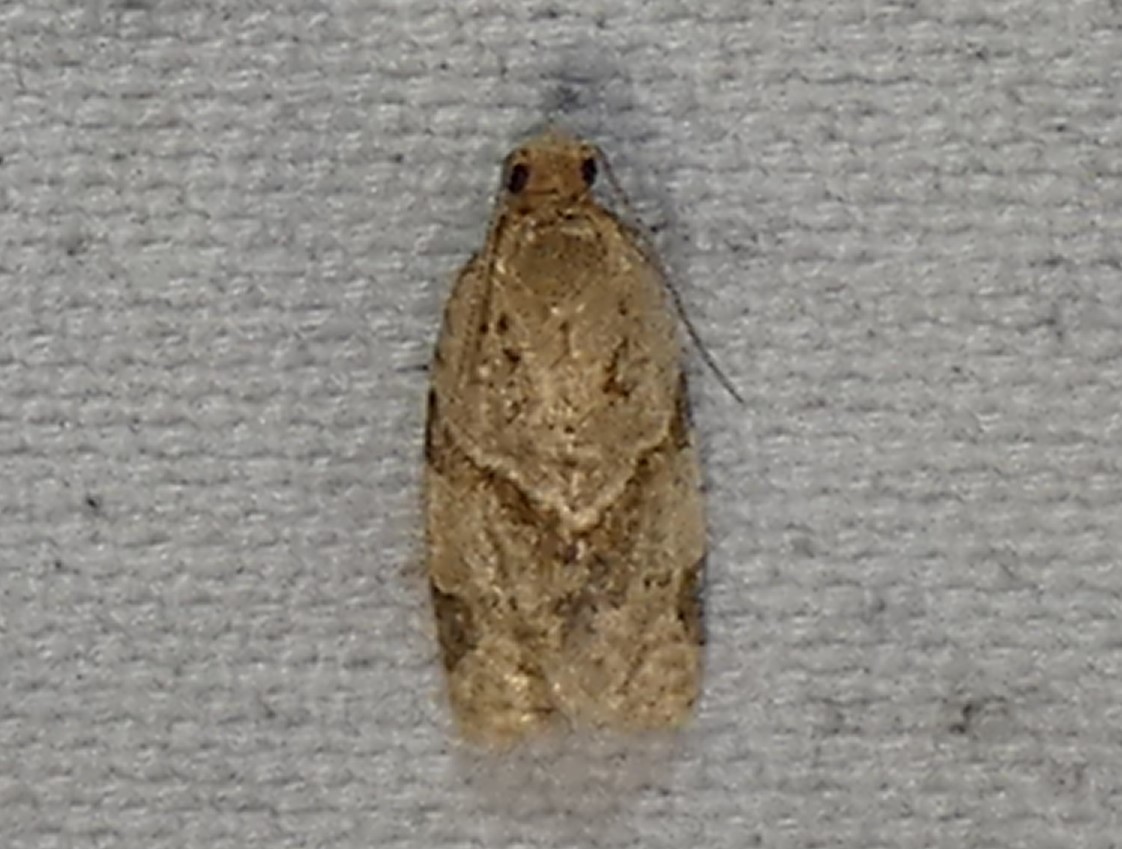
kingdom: Animalia
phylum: Arthropoda
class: Insecta
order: Lepidoptera
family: Tortricidae
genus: Clepsis
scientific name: Clepsis peritana
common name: Garden tortrix
